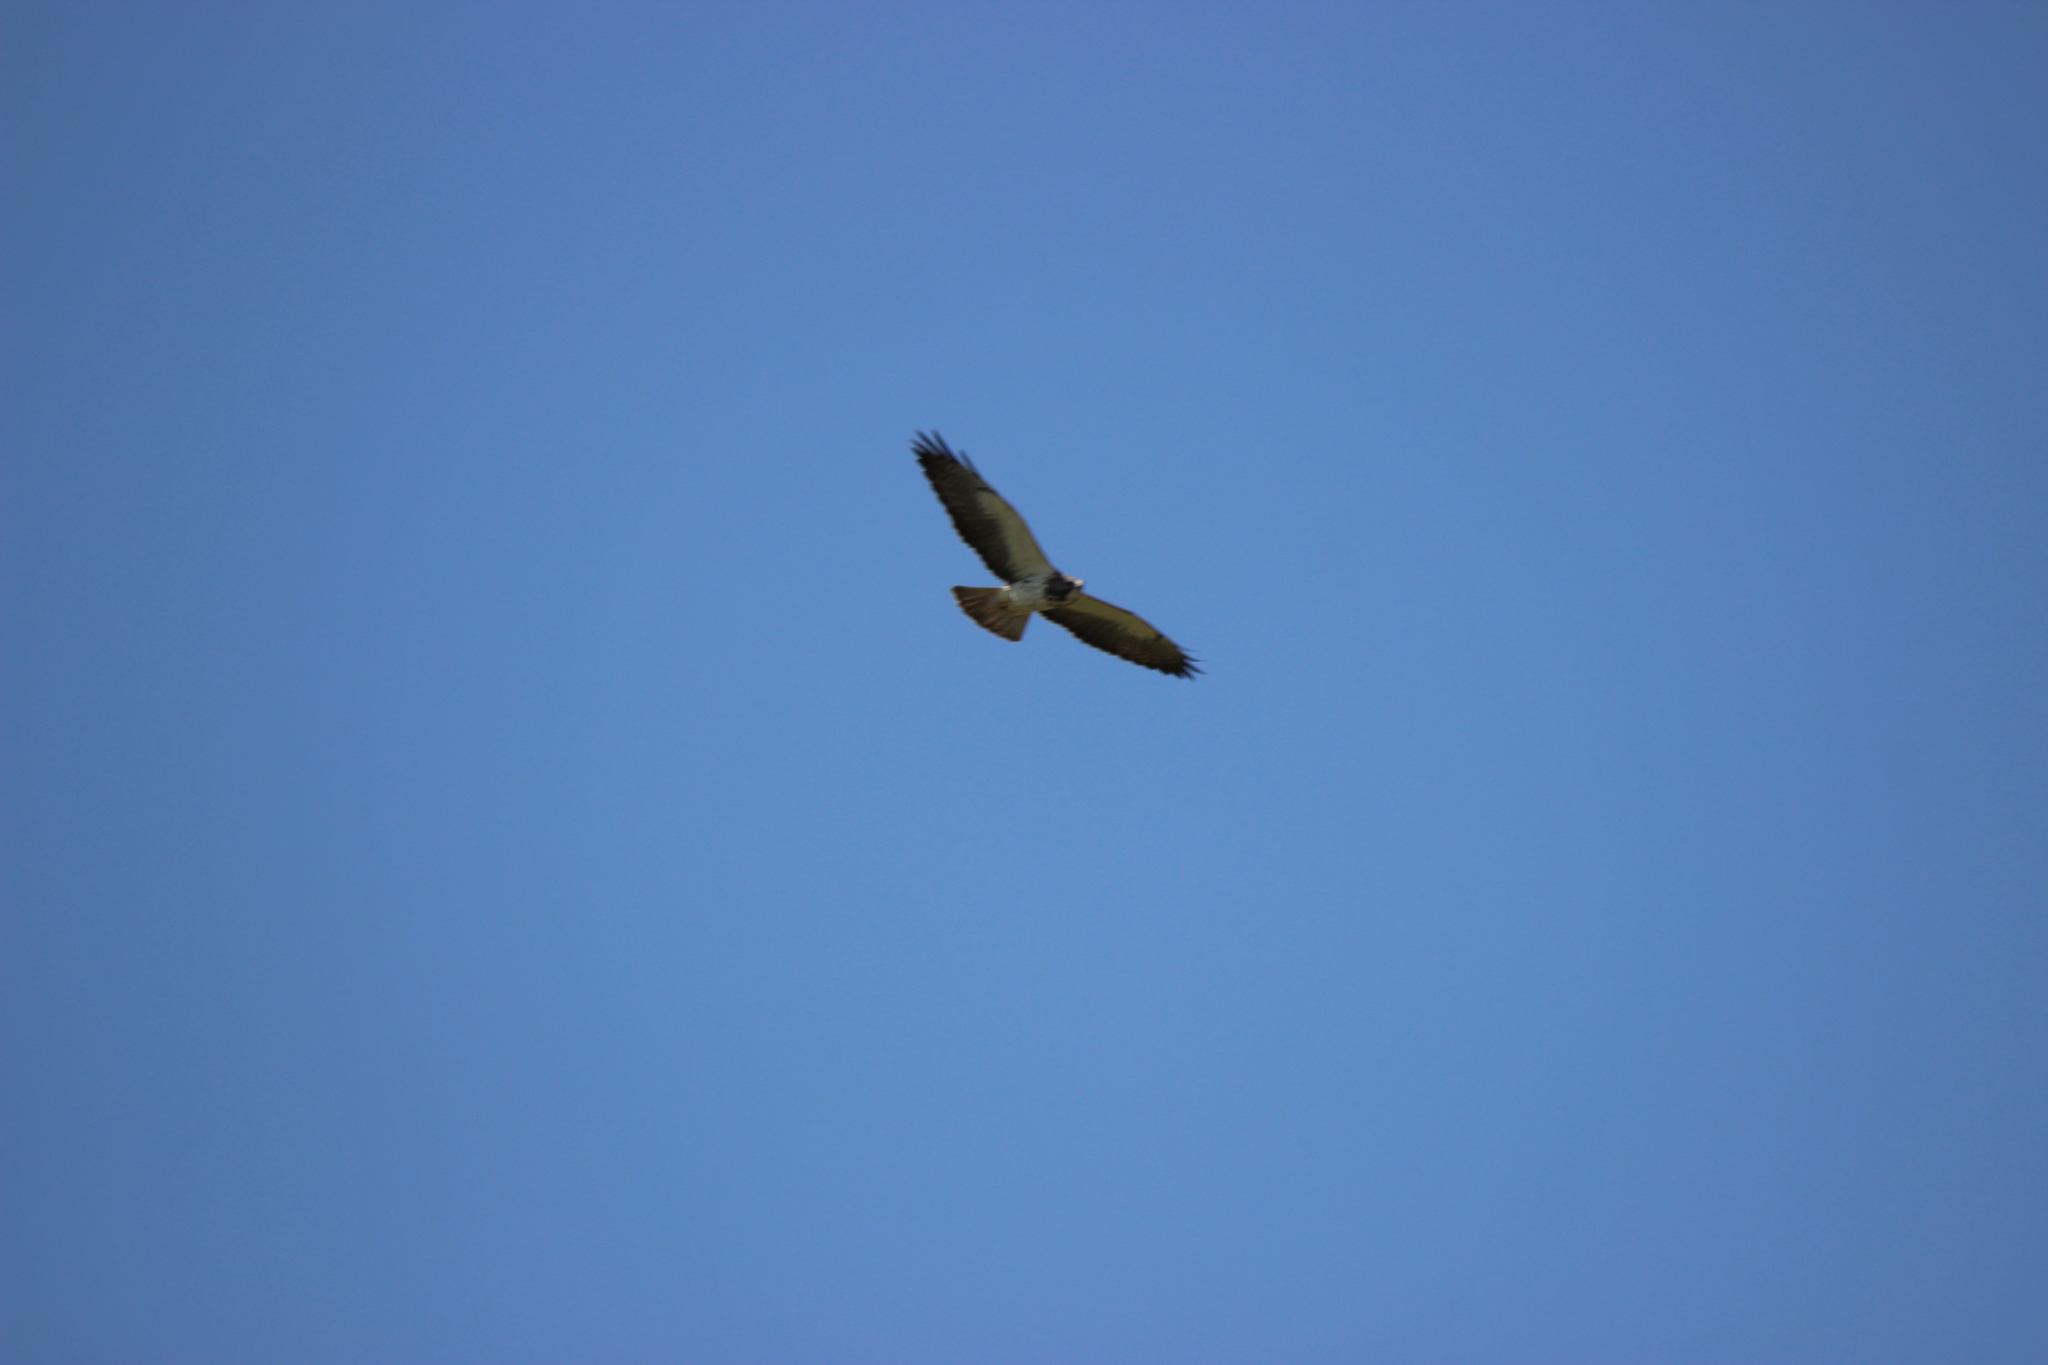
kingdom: Animalia
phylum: Chordata
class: Aves
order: Accipitriformes
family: Accipitridae
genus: Buteo
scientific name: Buteo swainsoni
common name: Swainson's hawk
